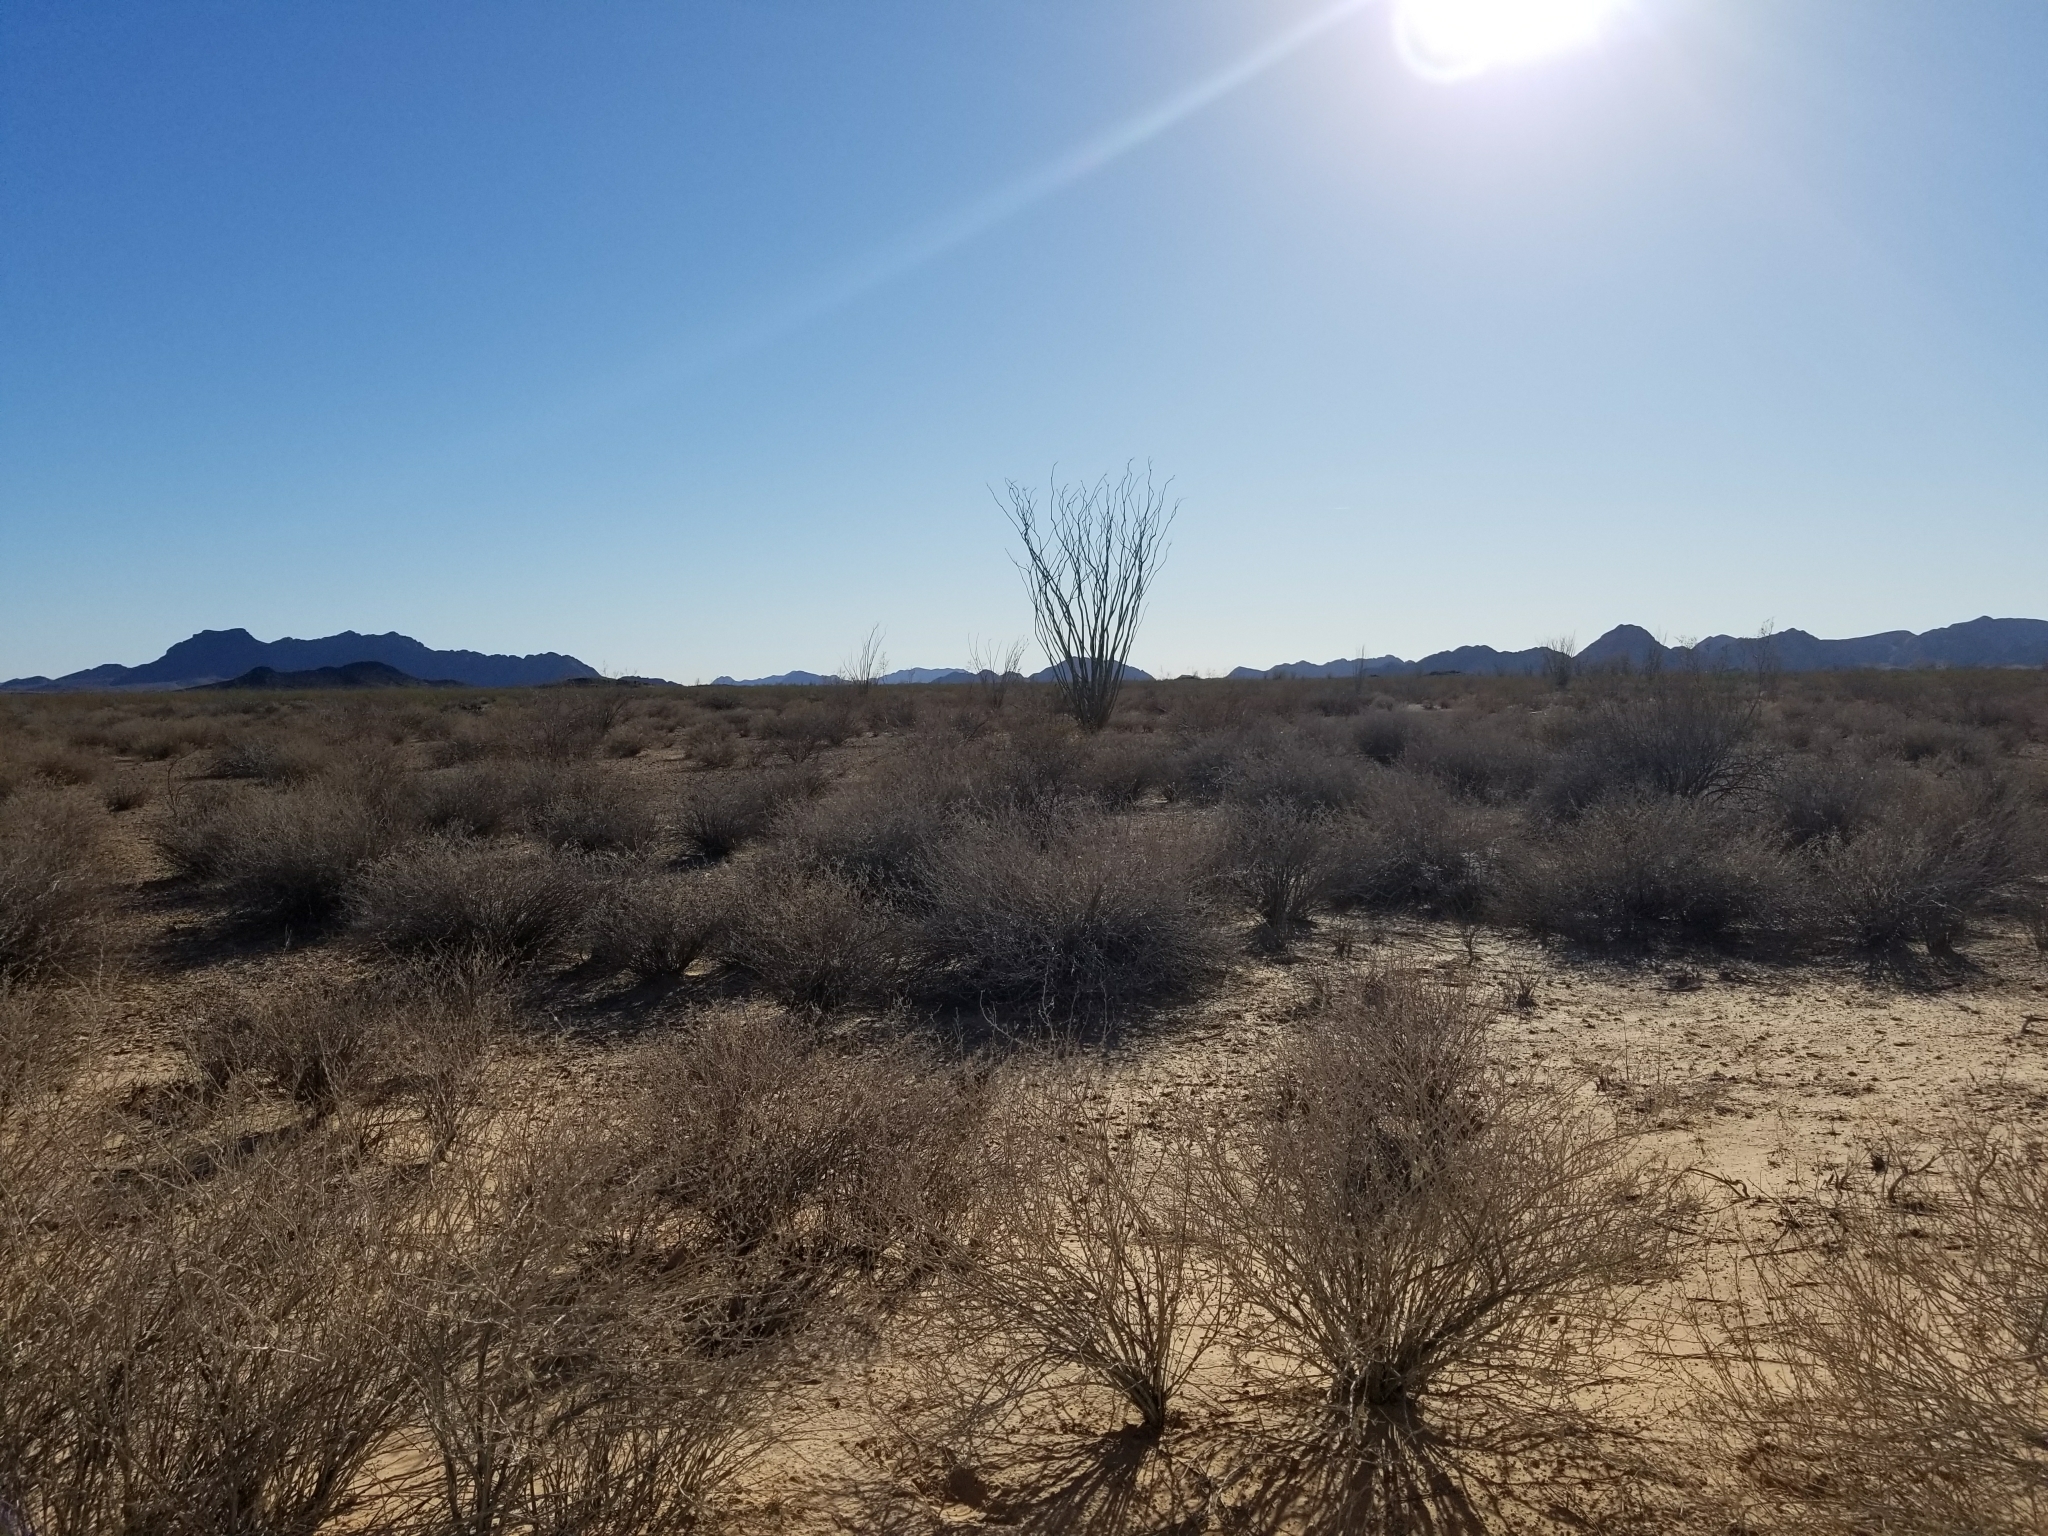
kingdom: Plantae
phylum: Tracheophyta
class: Magnoliopsida
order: Ericales
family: Fouquieriaceae
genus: Fouquieria
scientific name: Fouquieria splendens
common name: Vine-cactus
